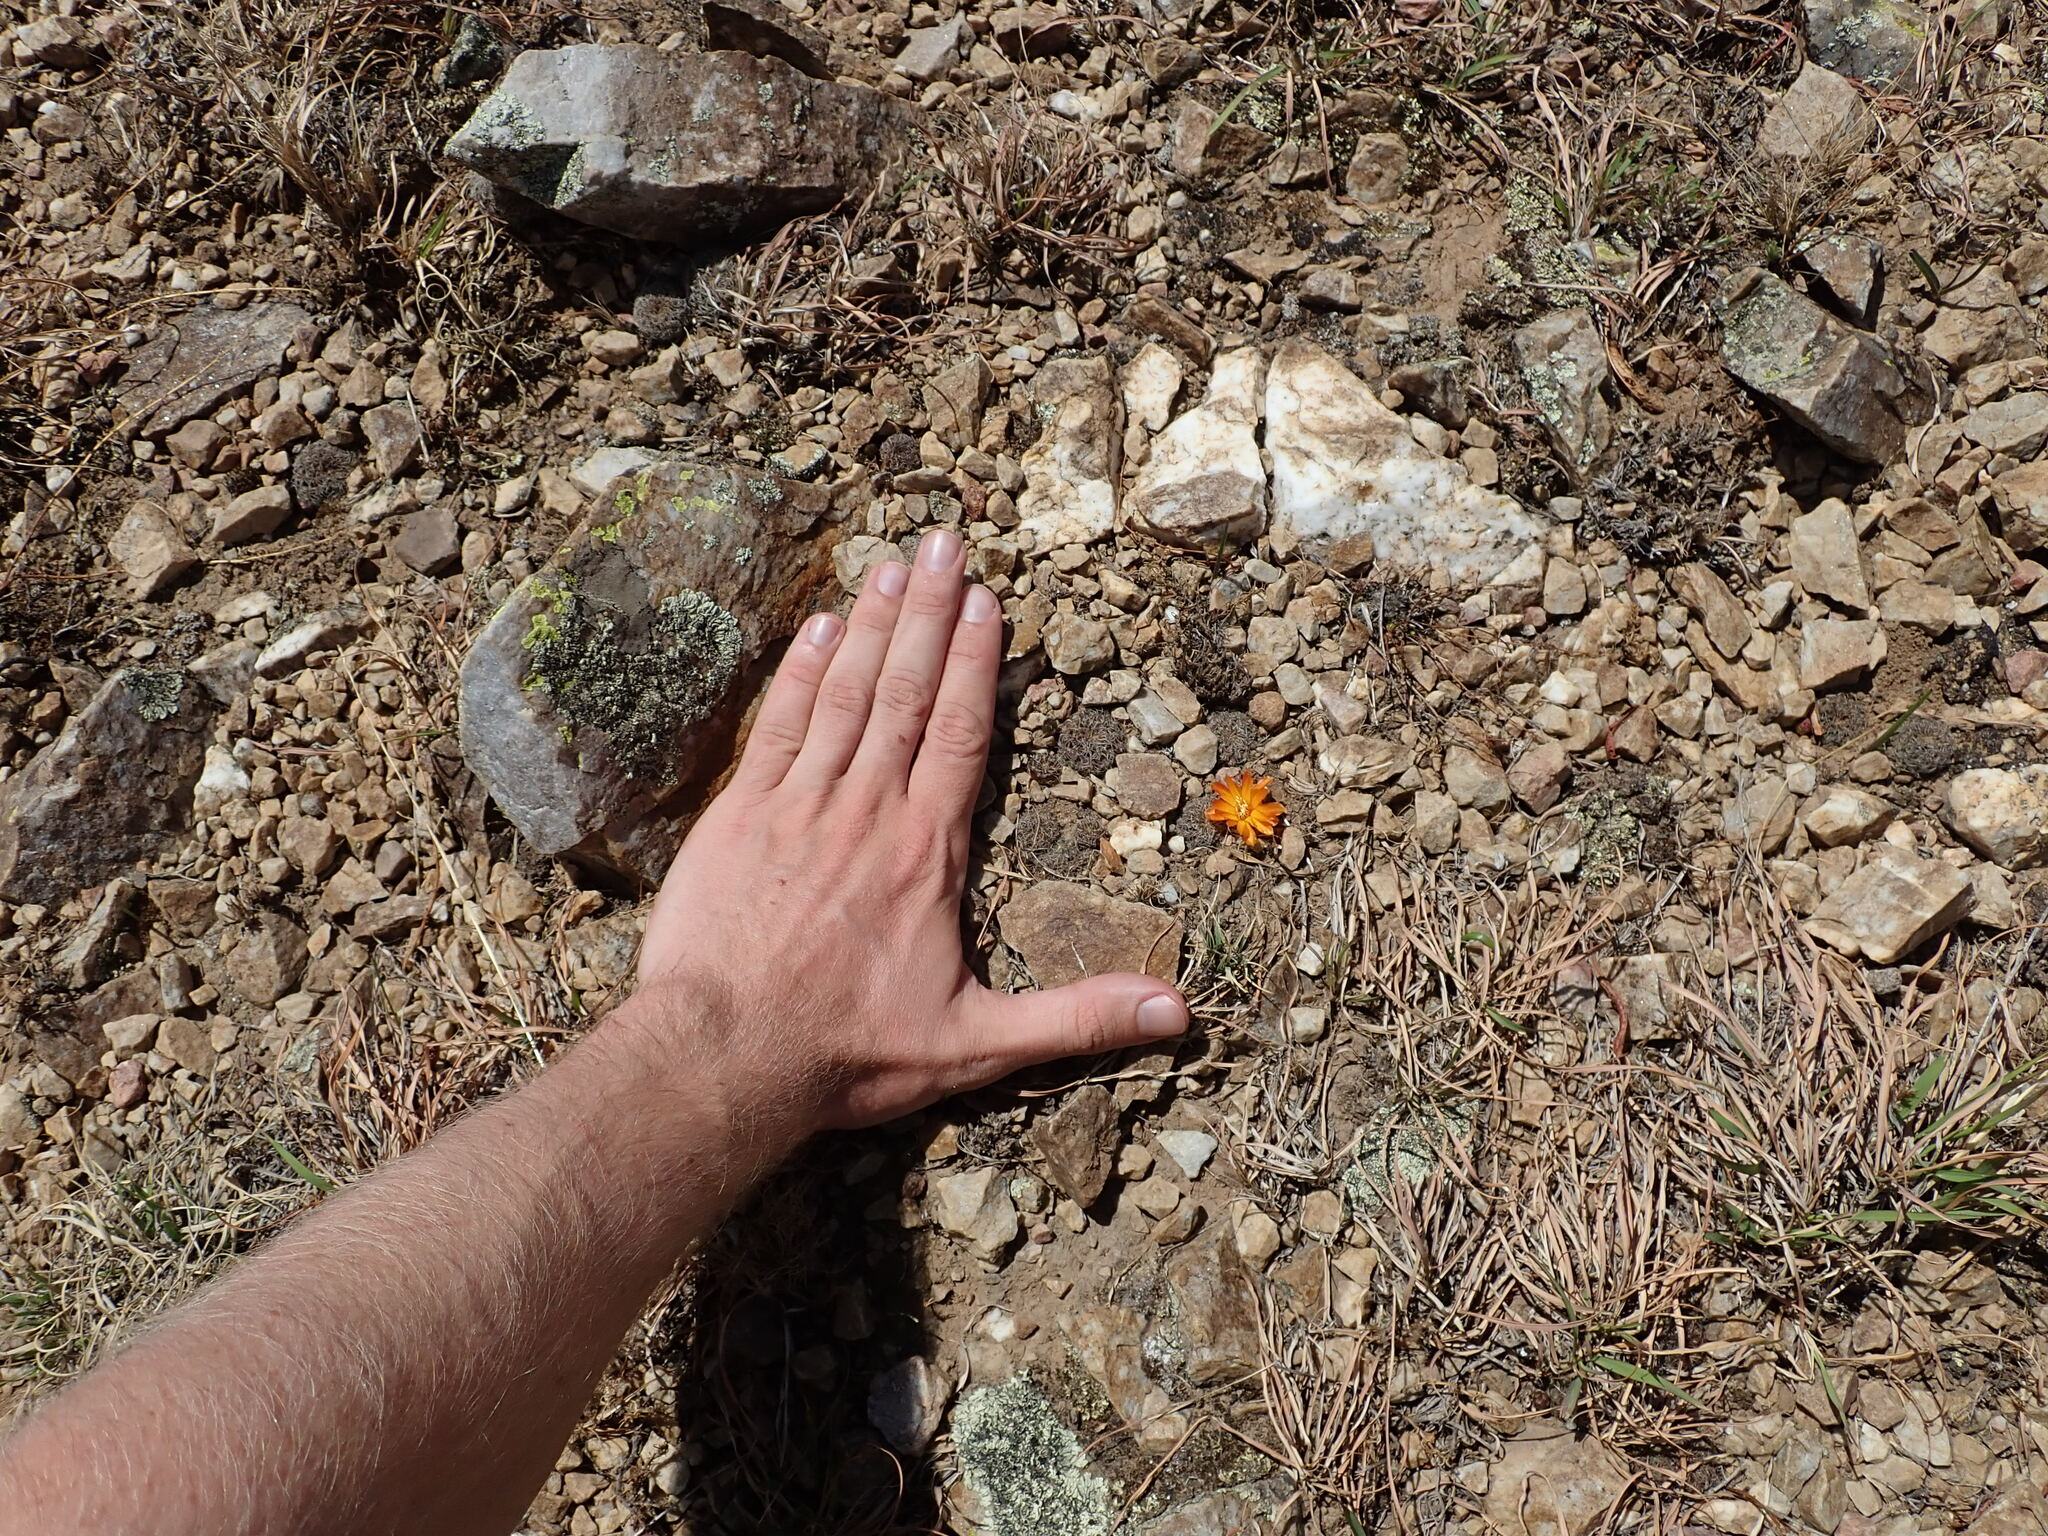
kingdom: Plantae
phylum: Tracheophyta
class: Magnoliopsida
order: Caryophyllales
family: Cactaceae
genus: Weingartia
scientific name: Weingartia krugerae
